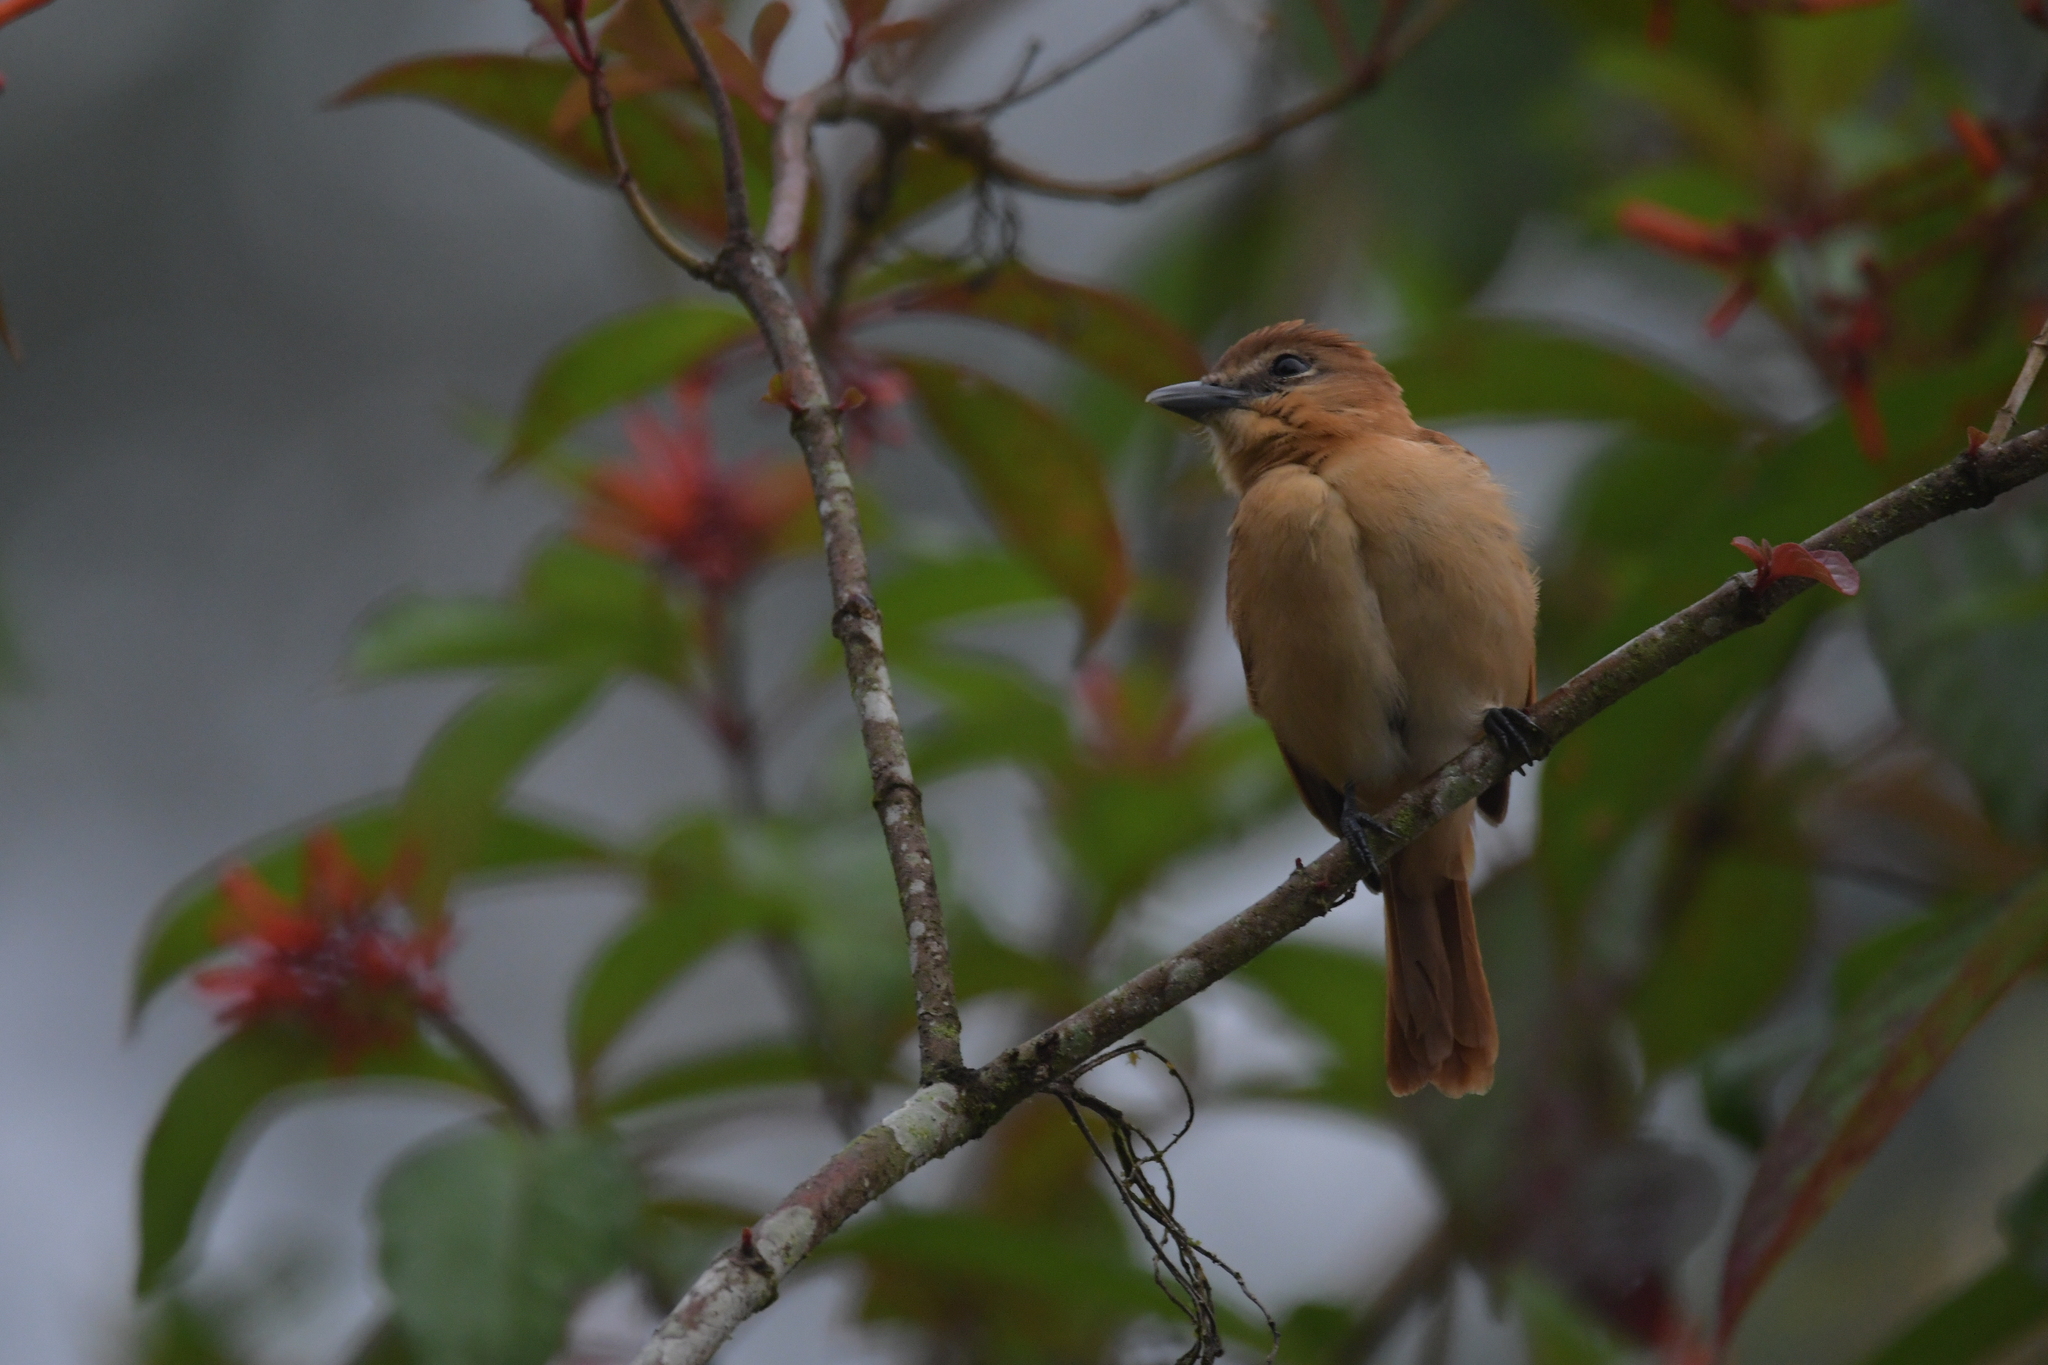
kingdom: Animalia
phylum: Chordata
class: Aves
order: Passeriformes
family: Cotingidae
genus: Pachyramphus
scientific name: Pachyramphus cinnamomeus
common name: Cinnamon becard
